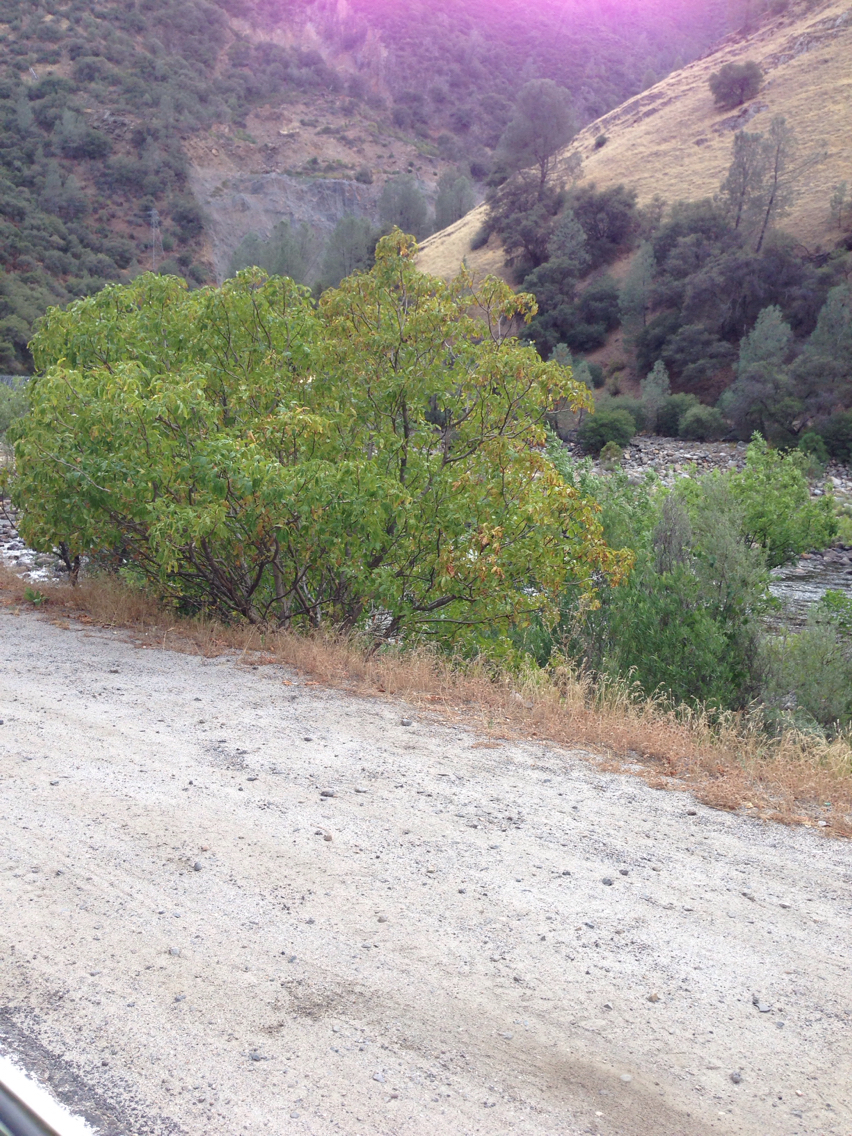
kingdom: Plantae
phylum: Tracheophyta
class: Magnoliopsida
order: Sapindales
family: Sapindaceae
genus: Aesculus
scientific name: Aesculus californica
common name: California buckeye
